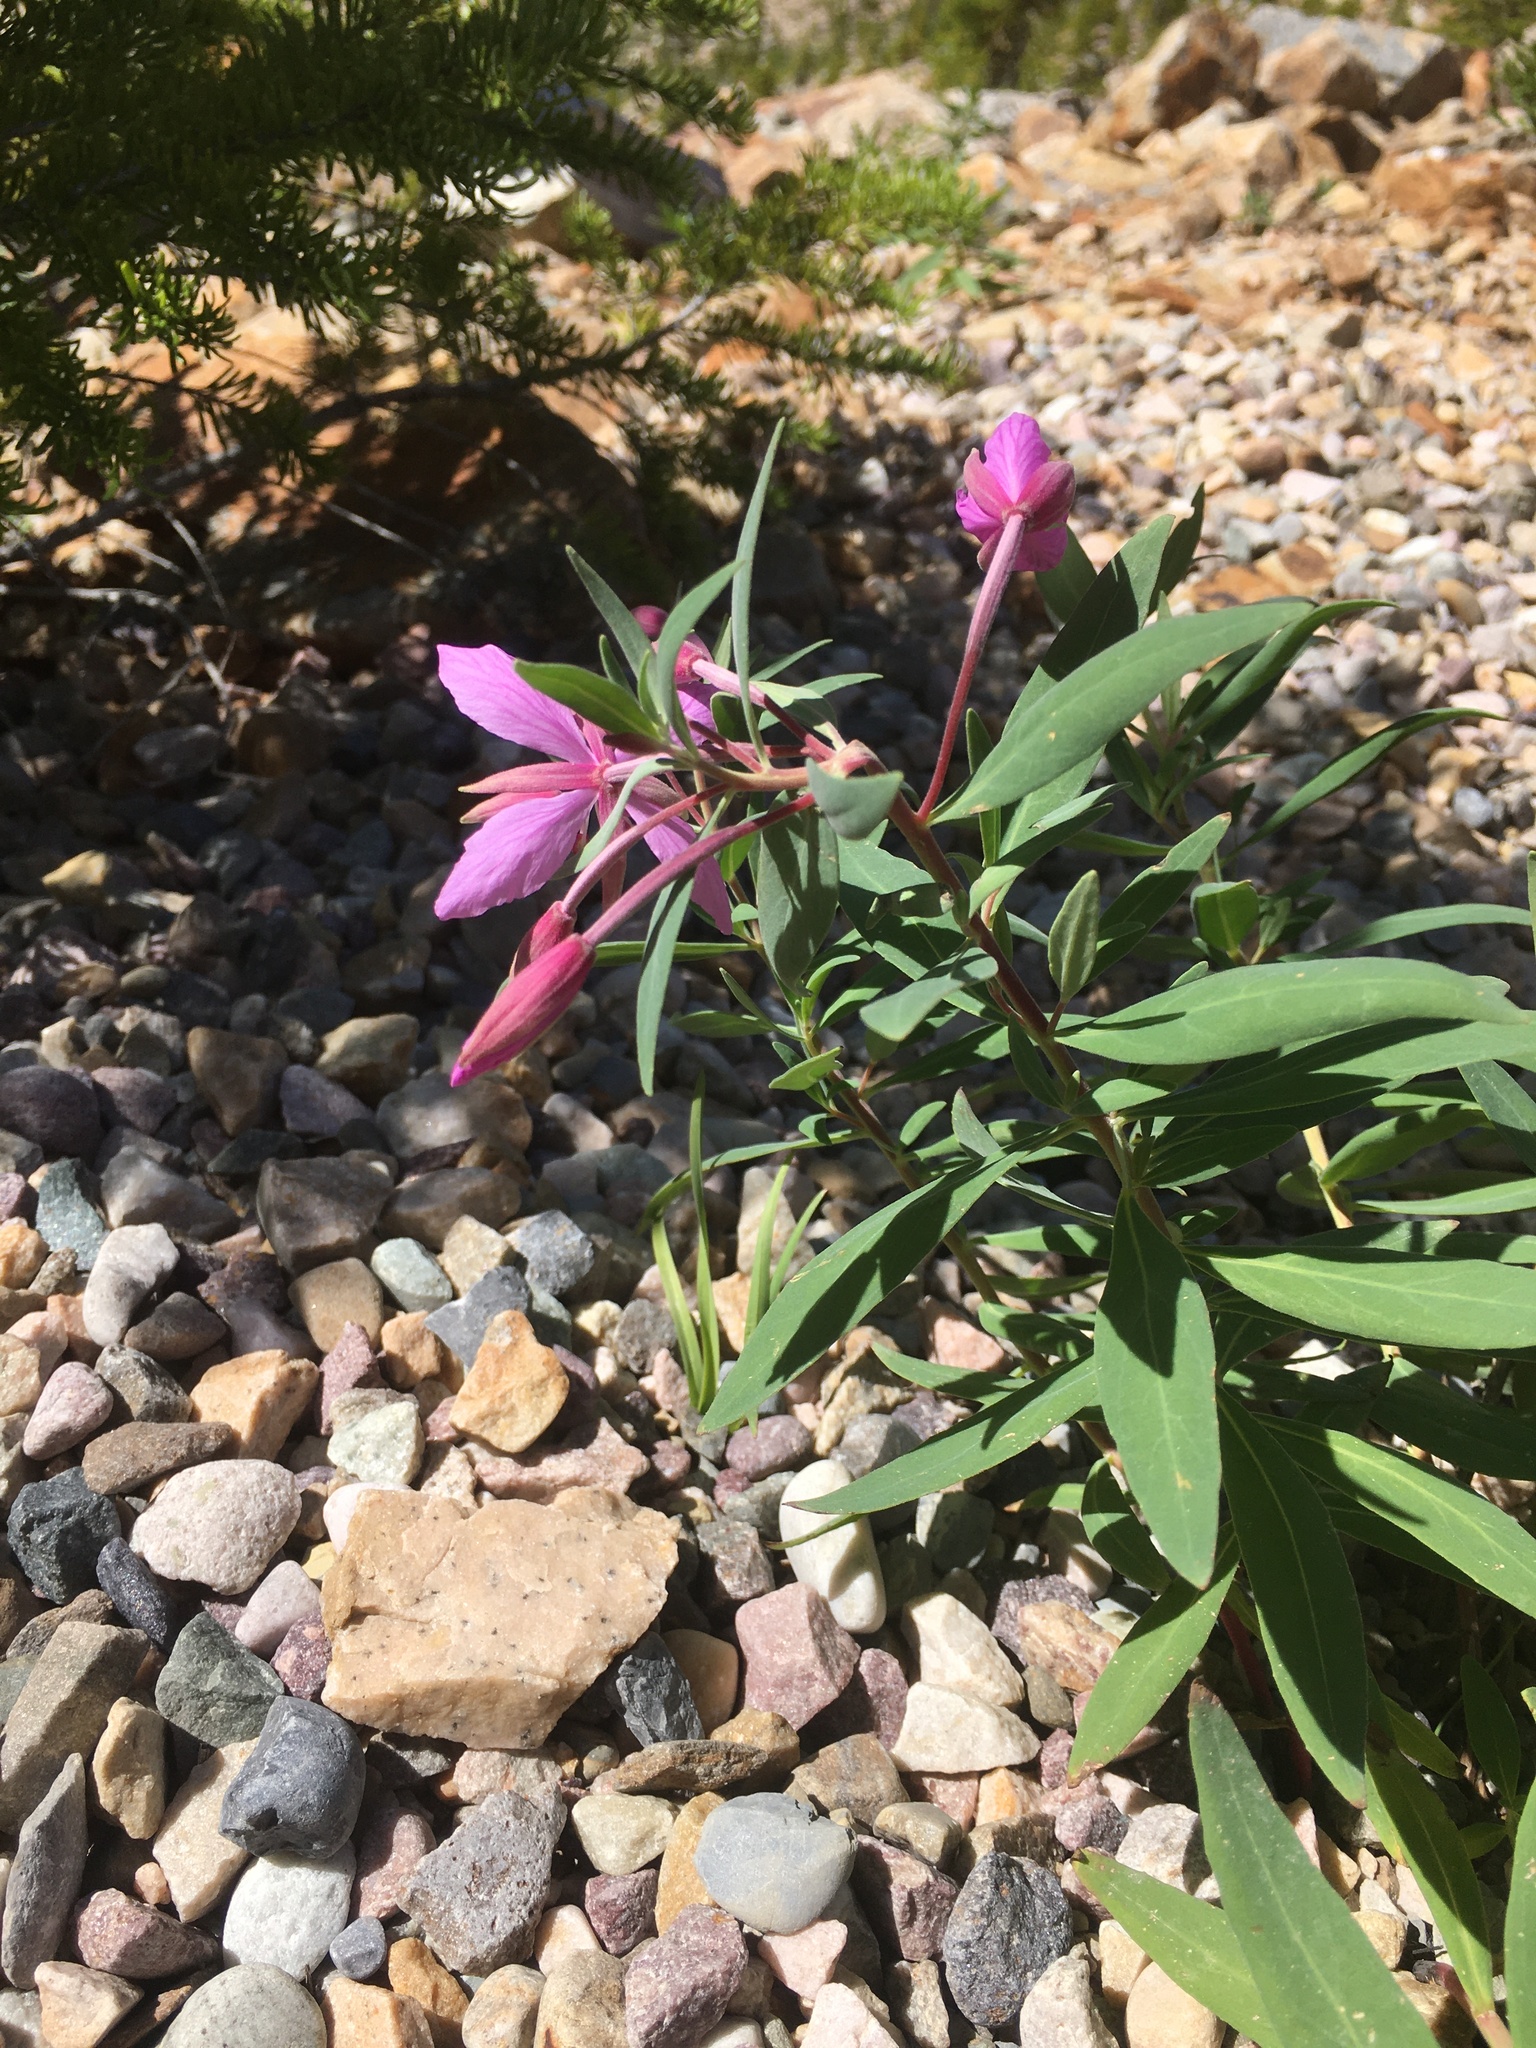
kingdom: Plantae
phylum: Tracheophyta
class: Magnoliopsida
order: Myrtales
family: Onagraceae
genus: Chamaenerion
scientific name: Chamaenerion latifolium
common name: Dwarf fireweed
